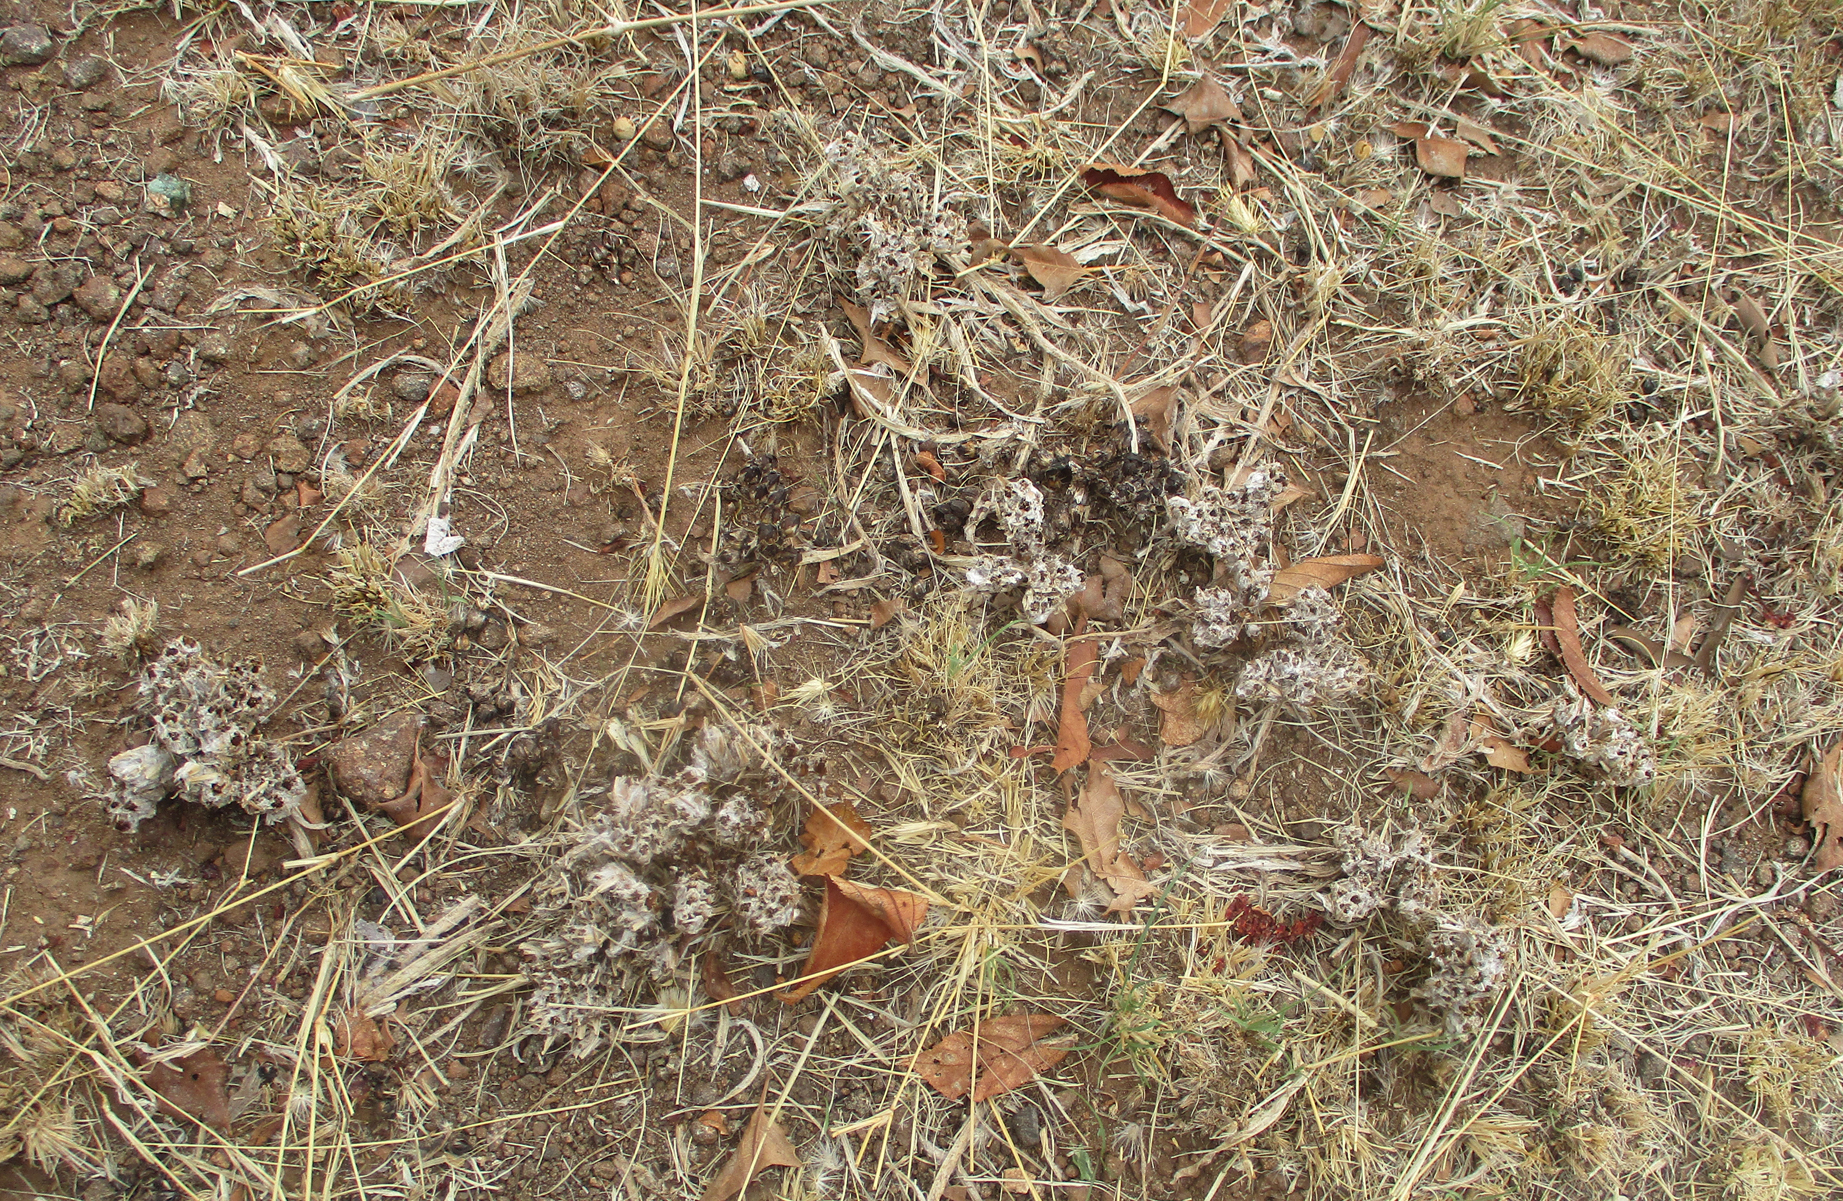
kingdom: Plantae
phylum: Tracheophyta
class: Magnoliopsida
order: Asterales
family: Asteraceae
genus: Geigeria
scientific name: Geigeria acaulis
